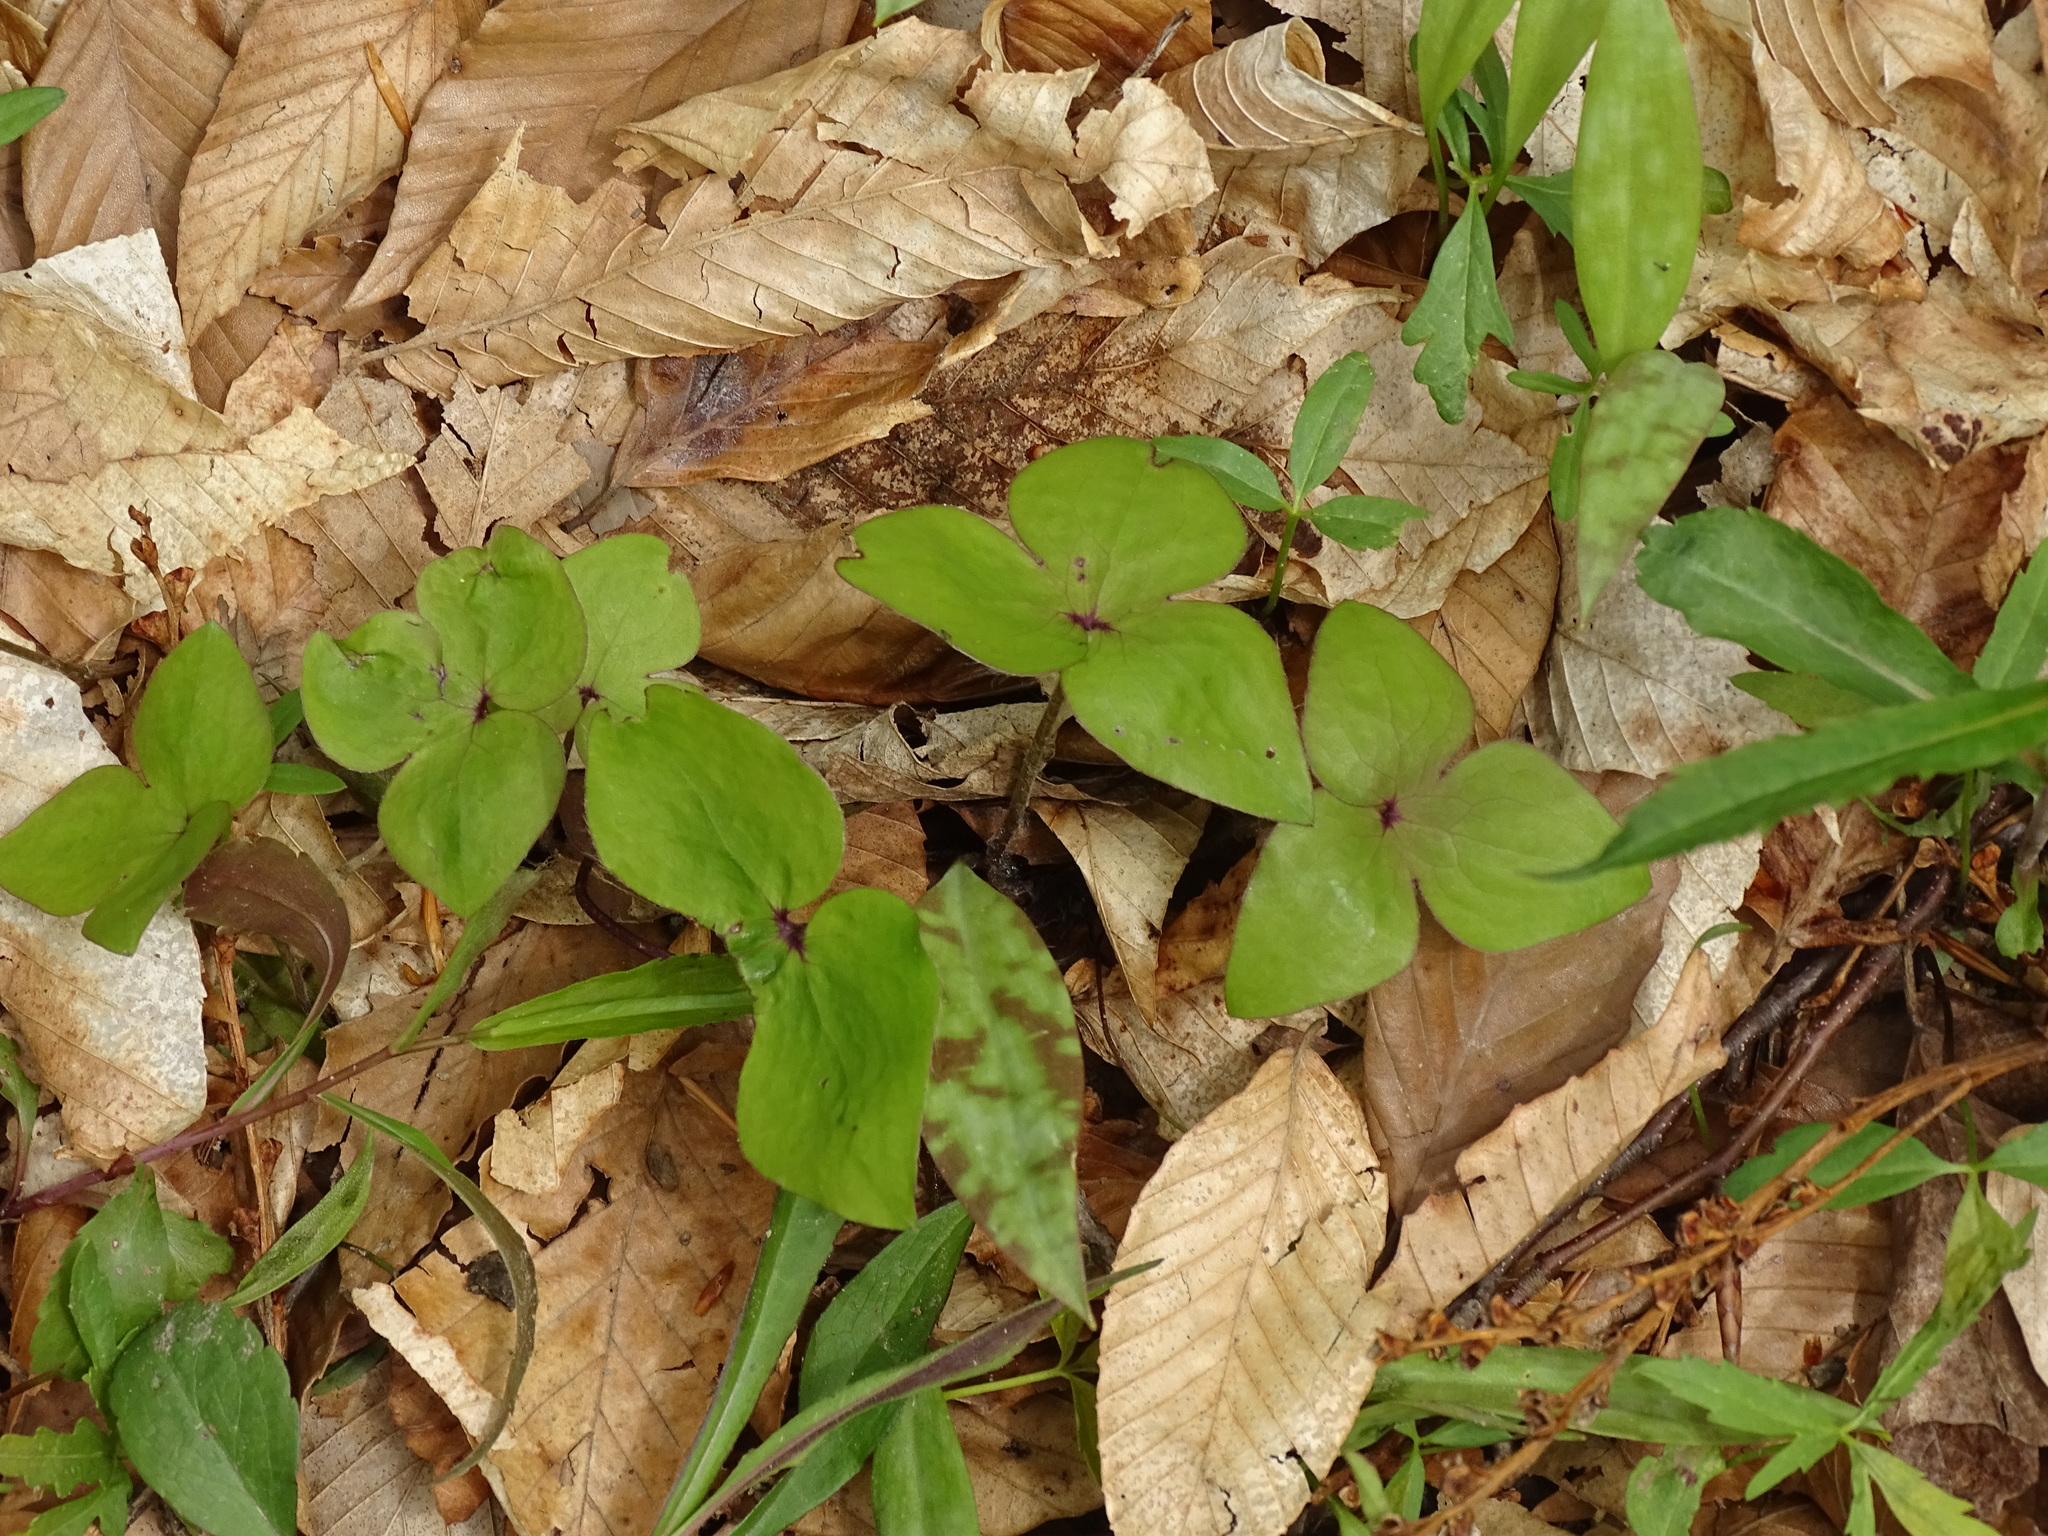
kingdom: Plantae
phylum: Tracheophyta
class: Magnoliopsida
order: Ranunculales
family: Ranunculaceae
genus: Hepatica
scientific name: Hepatica acutiloba
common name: Sharp-lobed hepatica
